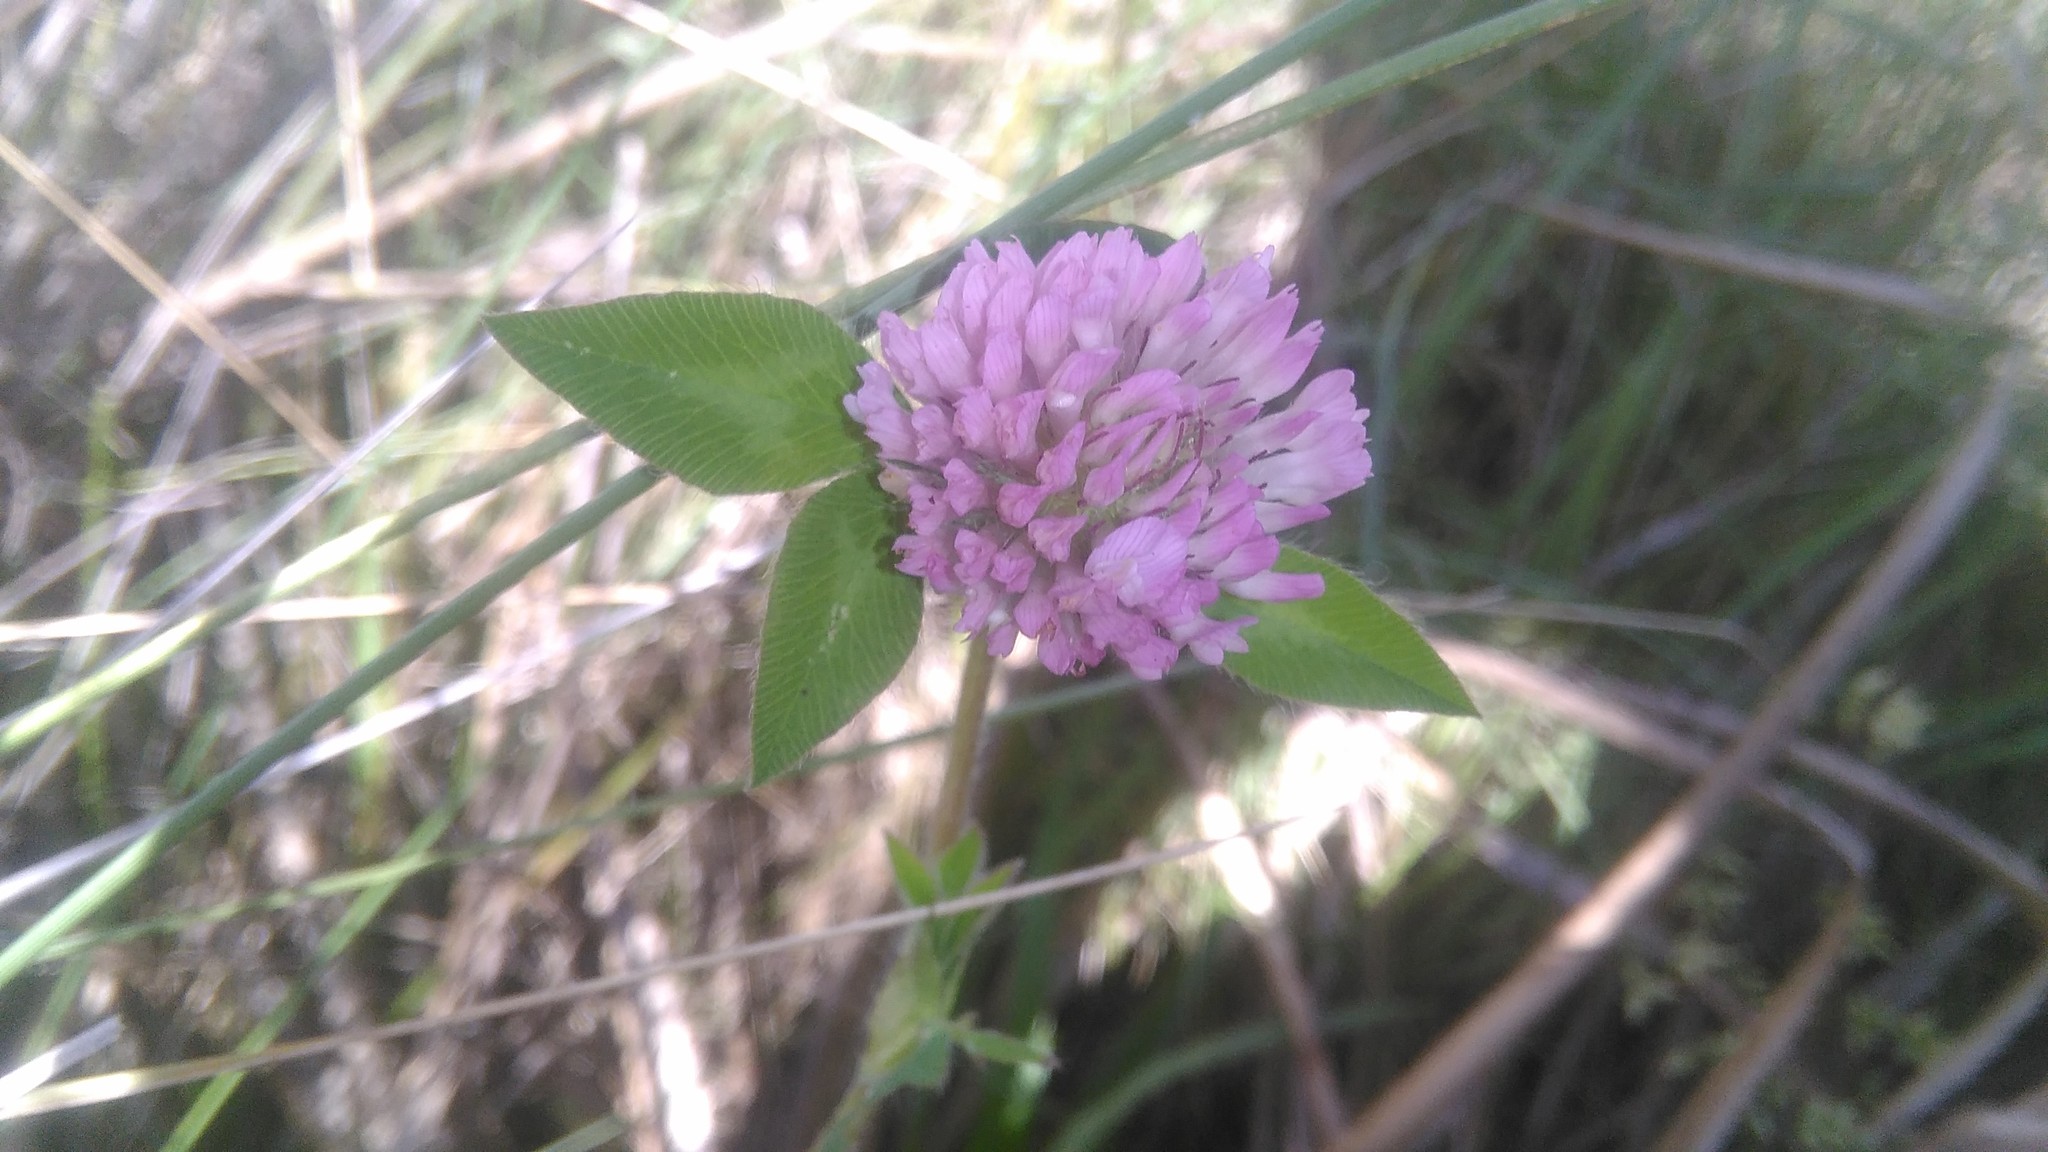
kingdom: Plantae
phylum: Tracheophyta
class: Magnoliopsida
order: Fabales
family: Fabaceae
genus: Trifolium
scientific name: Trifolium pratense
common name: Red clover
